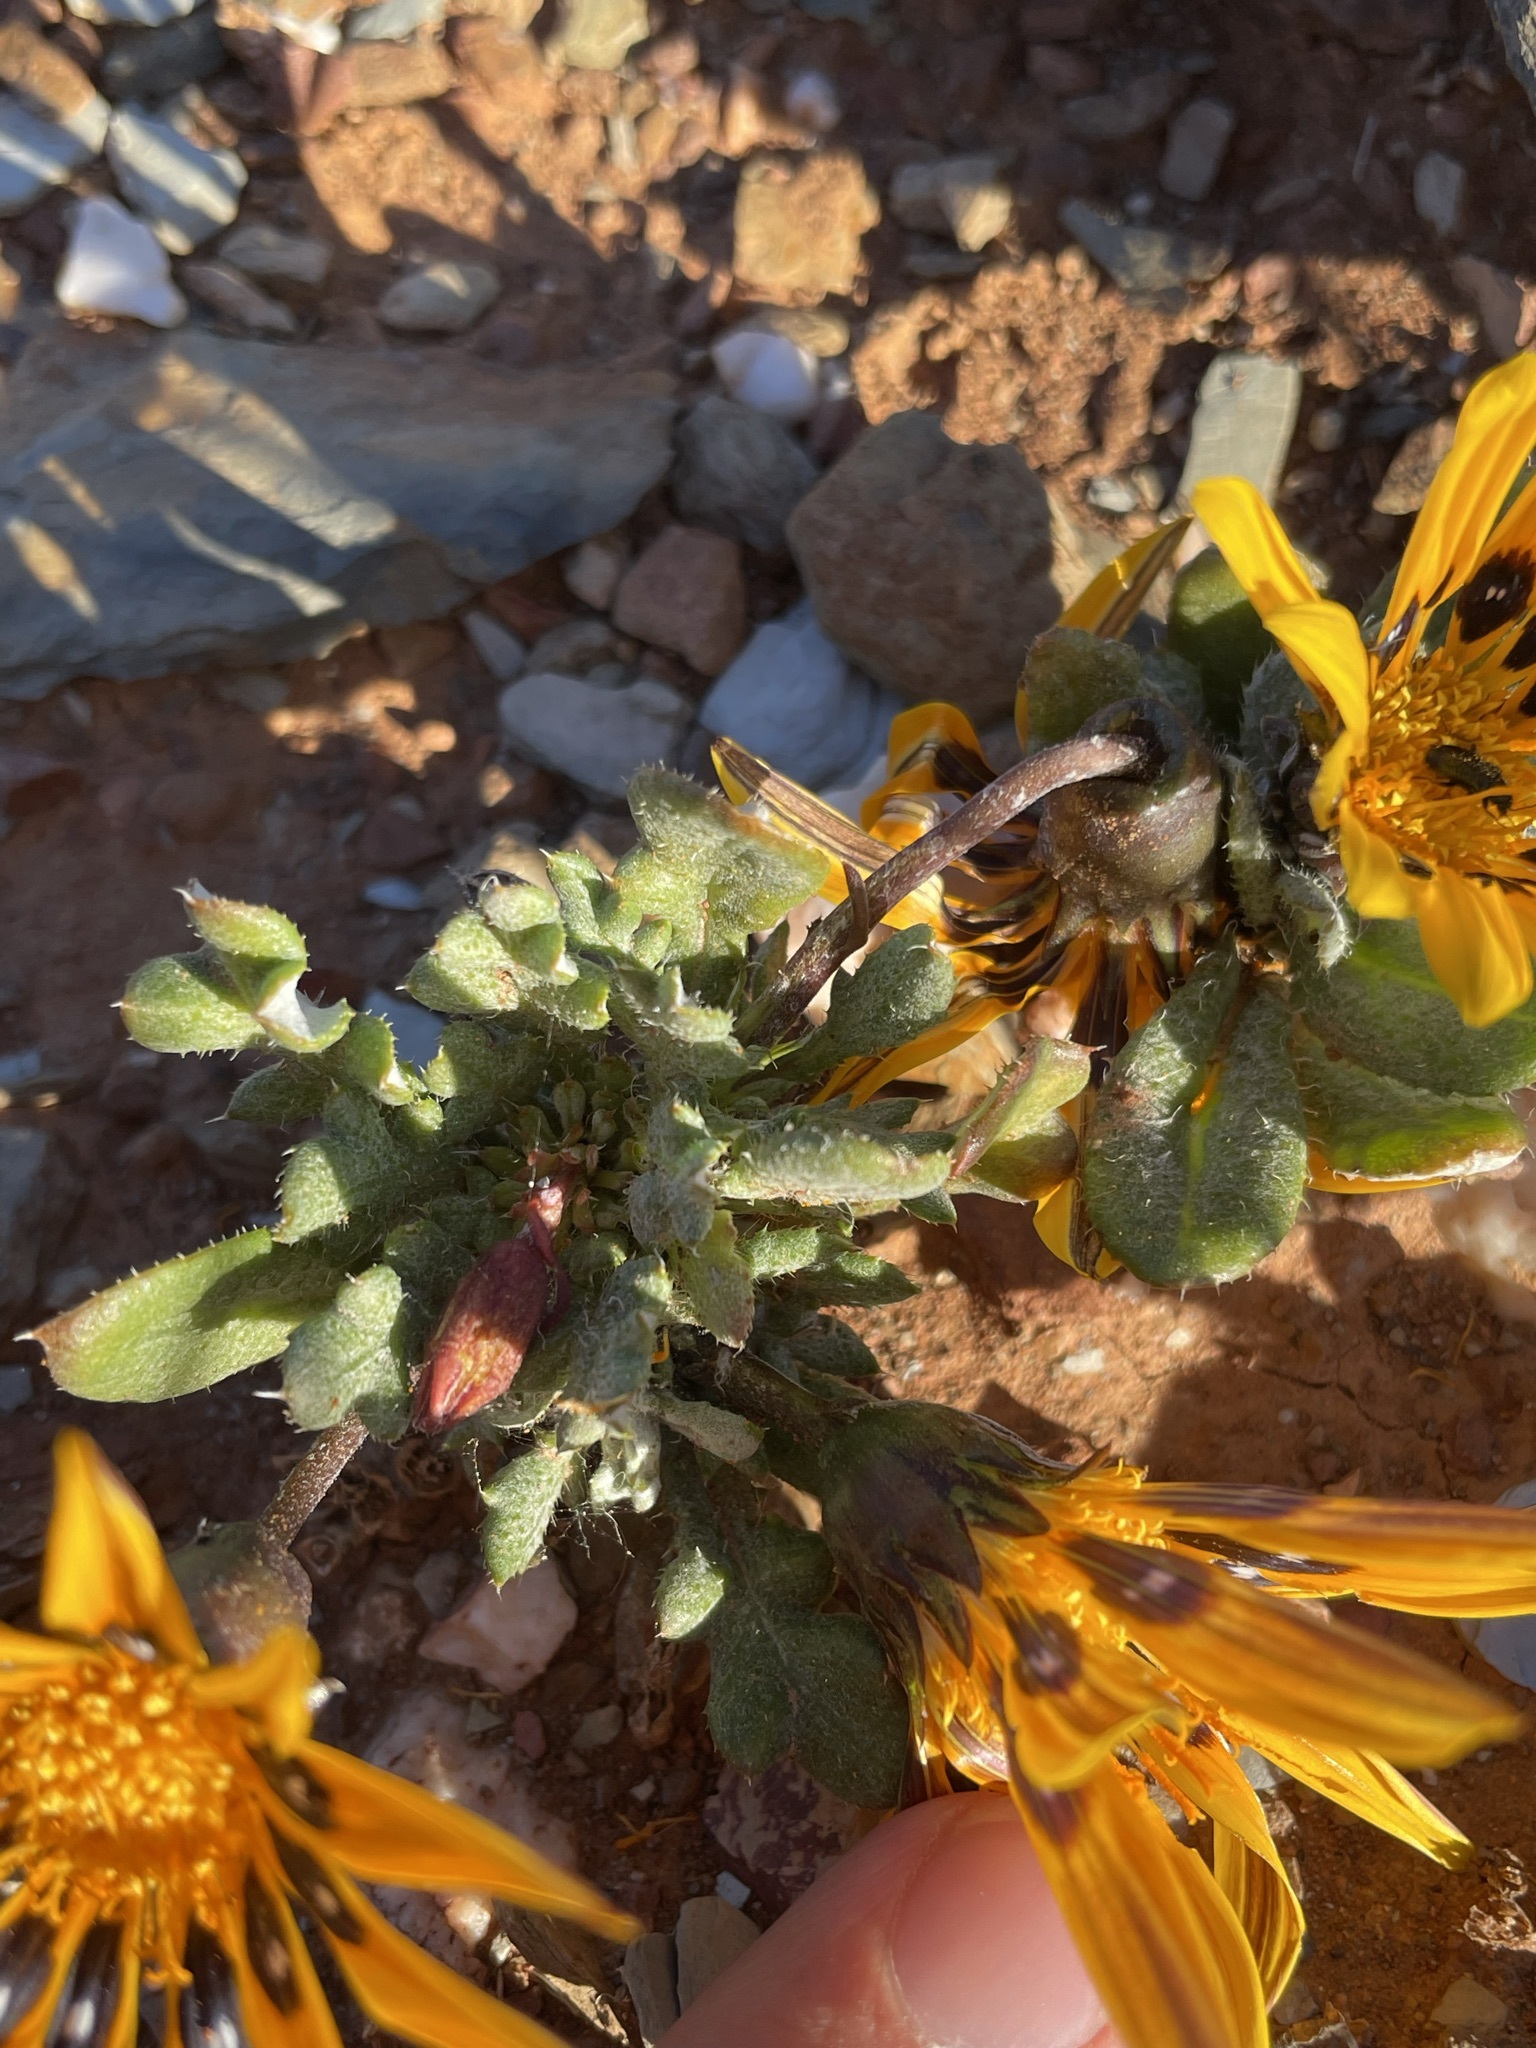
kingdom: Plantae
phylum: Tracheophyta
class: Magnoliopsida
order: Asterales
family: Asteraceae
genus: Gazania
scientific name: Gazania heterochaeta
